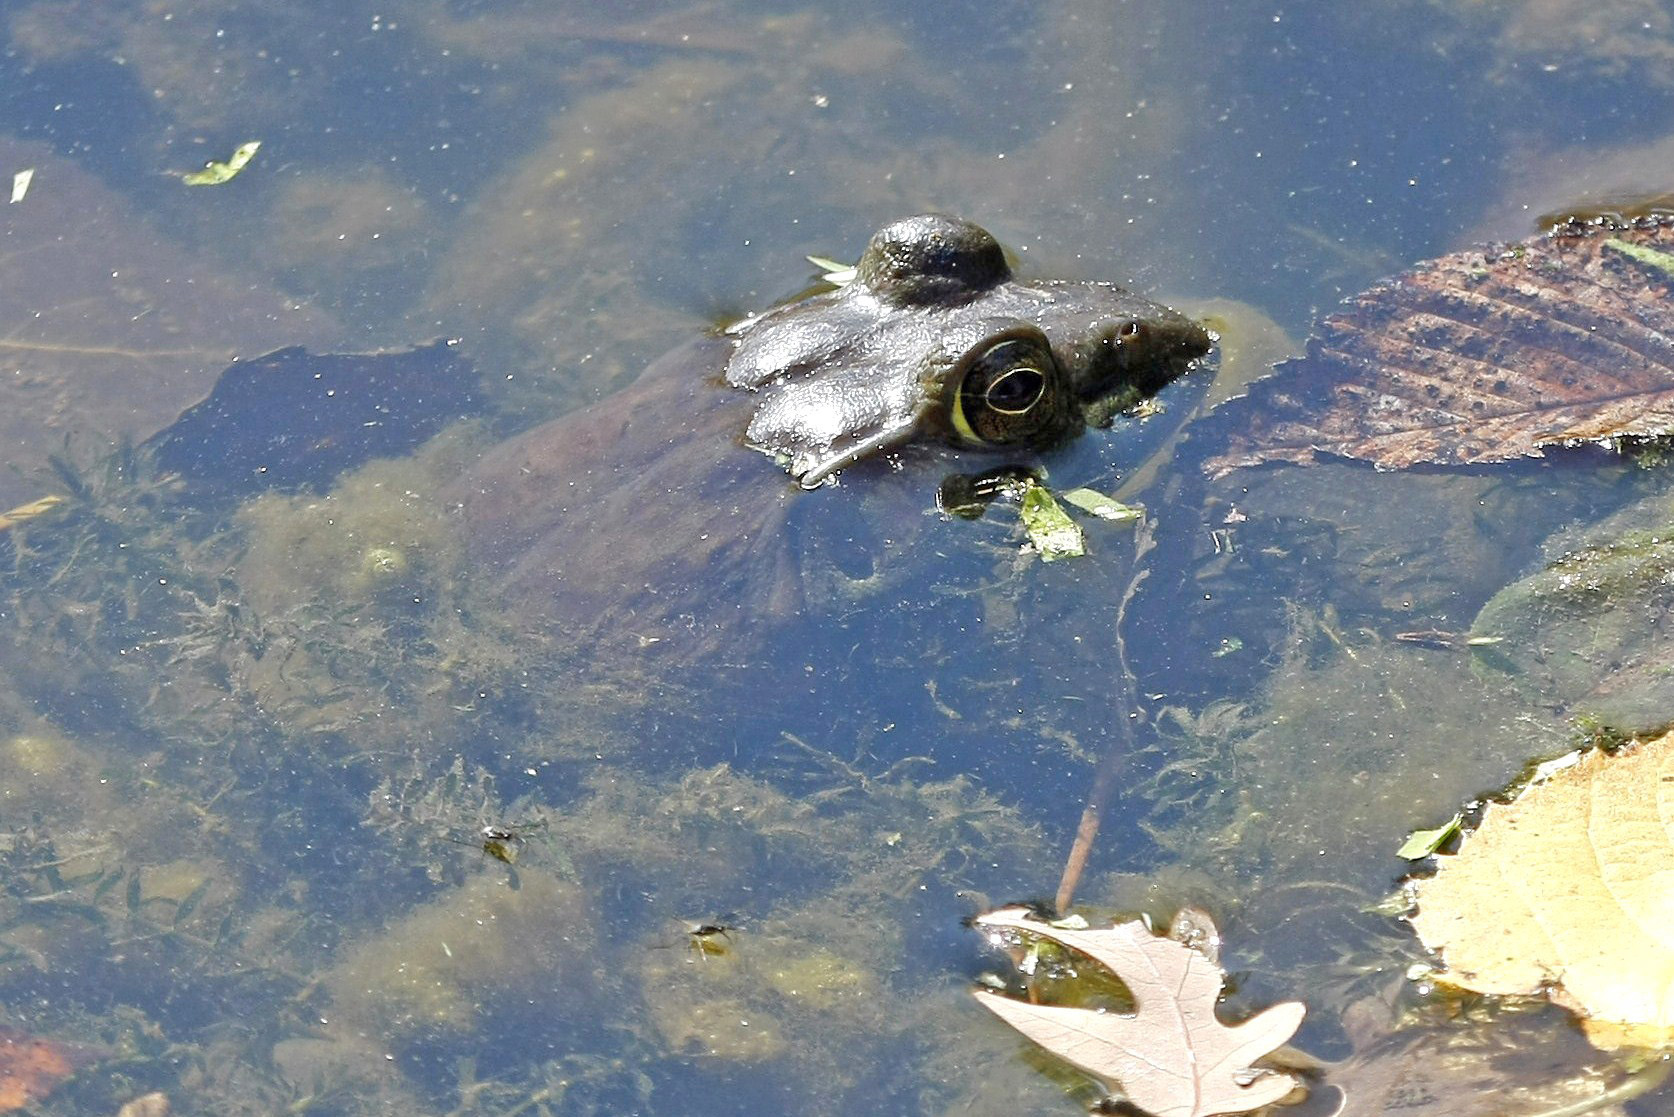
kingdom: Animalia
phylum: Chordata
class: Amphibia
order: Anura
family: Ranidae
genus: Lithobates
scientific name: Lithobates catesbeianus
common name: American bullfrog
